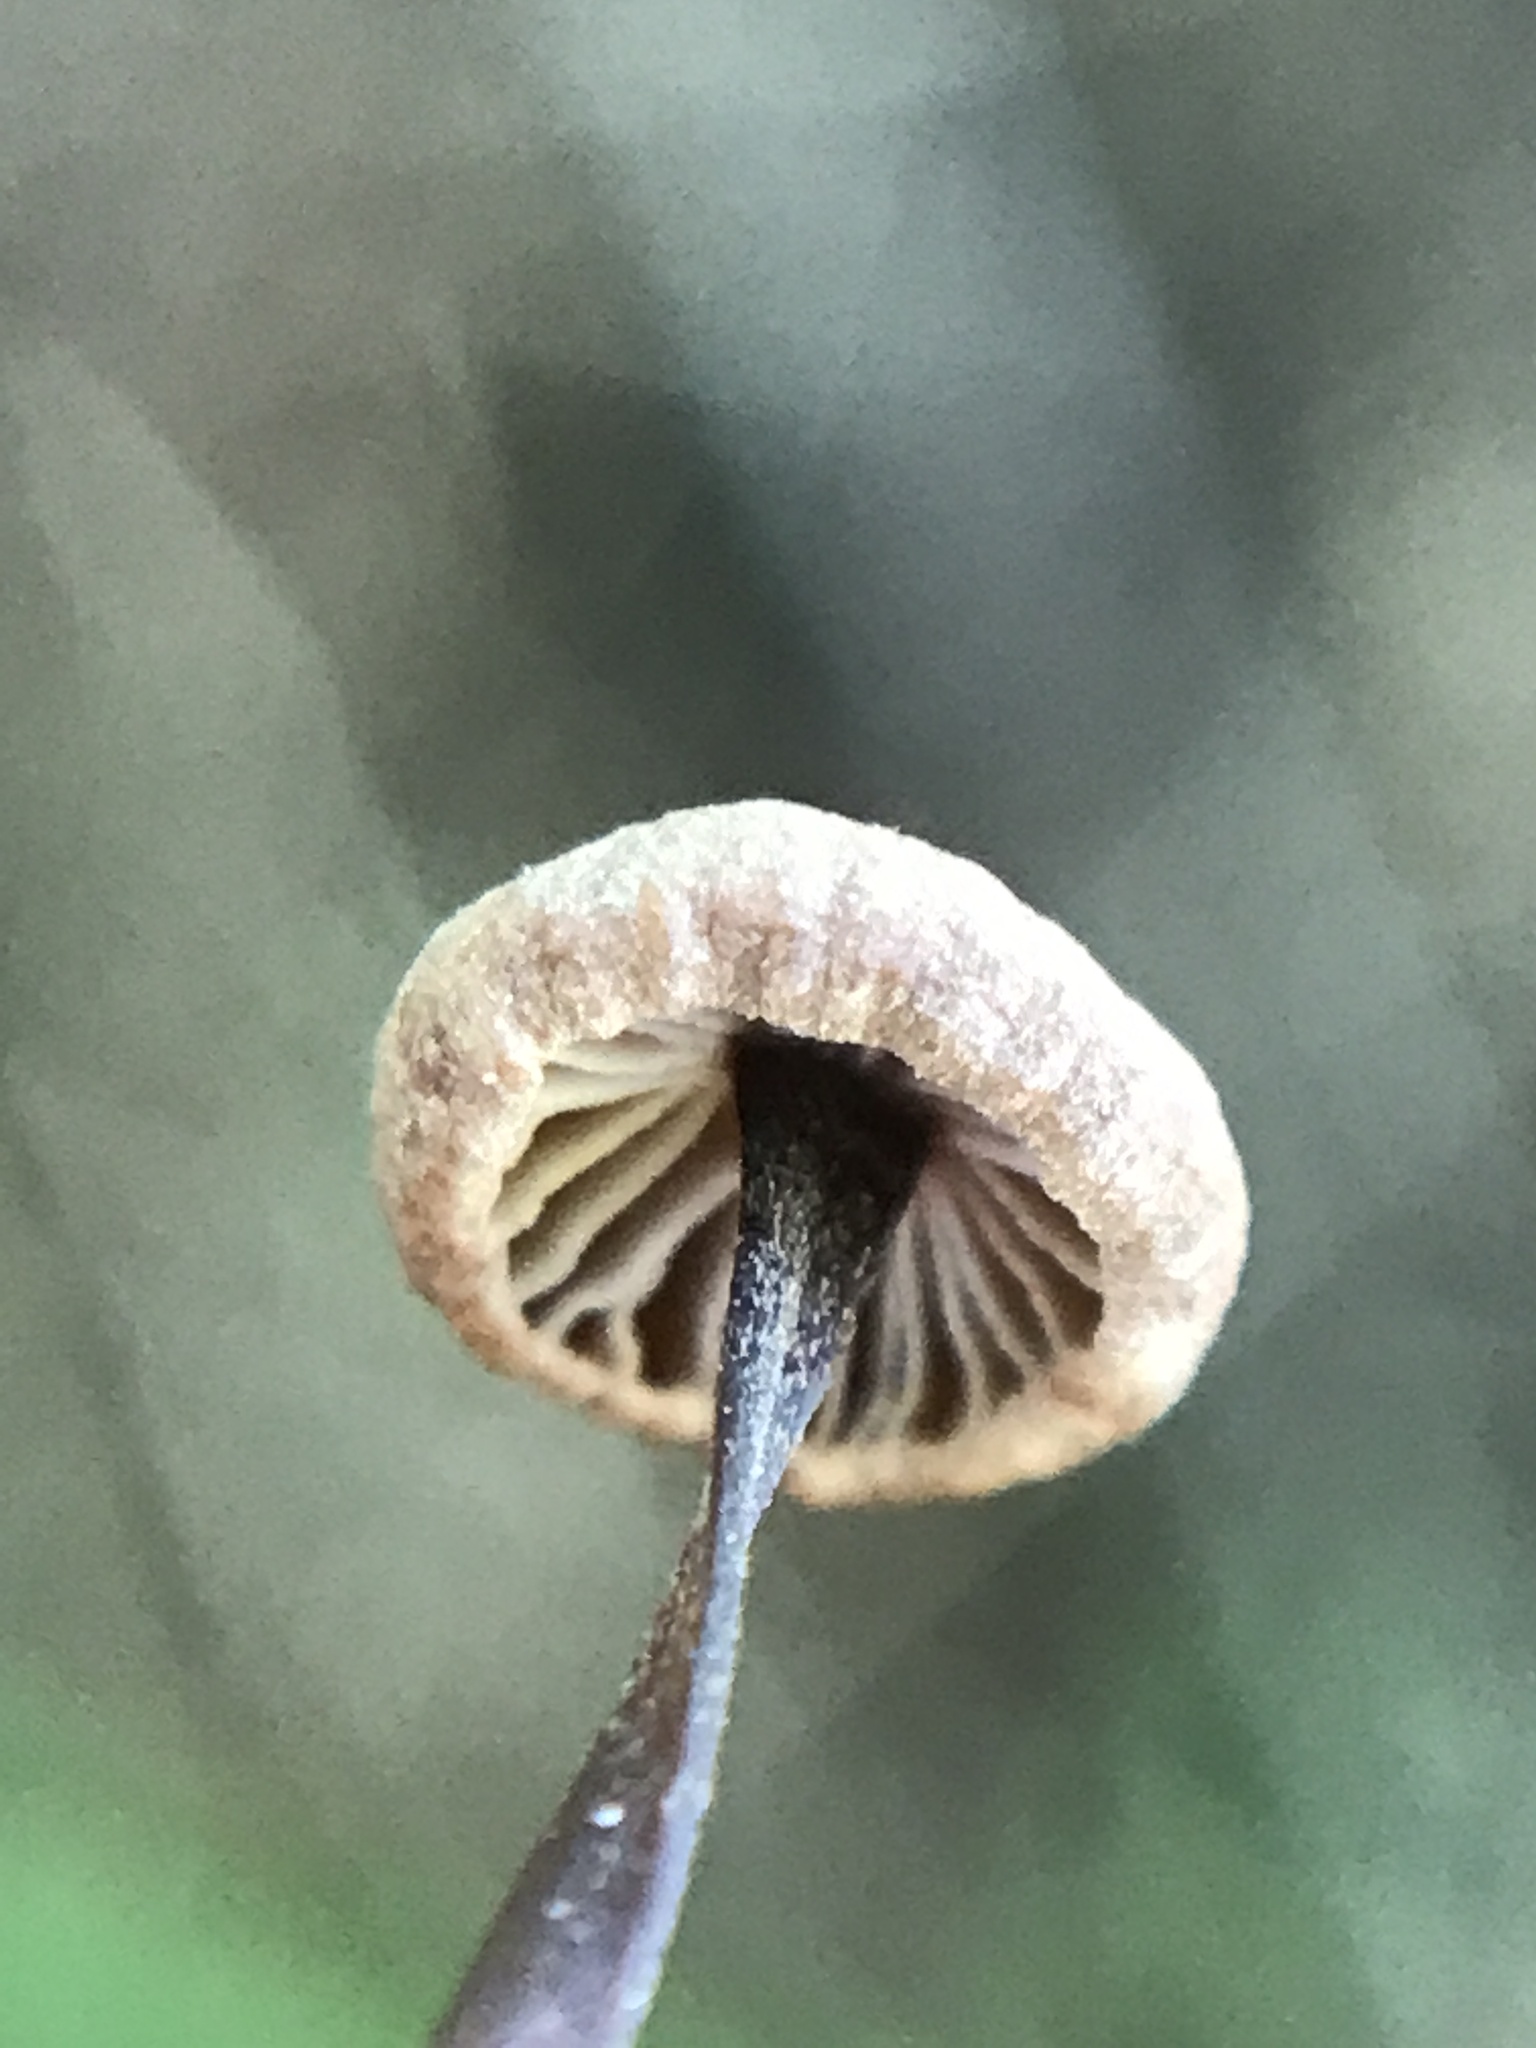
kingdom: Fungi
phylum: Basidiomycota
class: Agaricomycetes
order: Agaricales
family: Omphalotaceae
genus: Gymnopus
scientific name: Gymnopus androsaceus
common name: Horse-hair fungus
